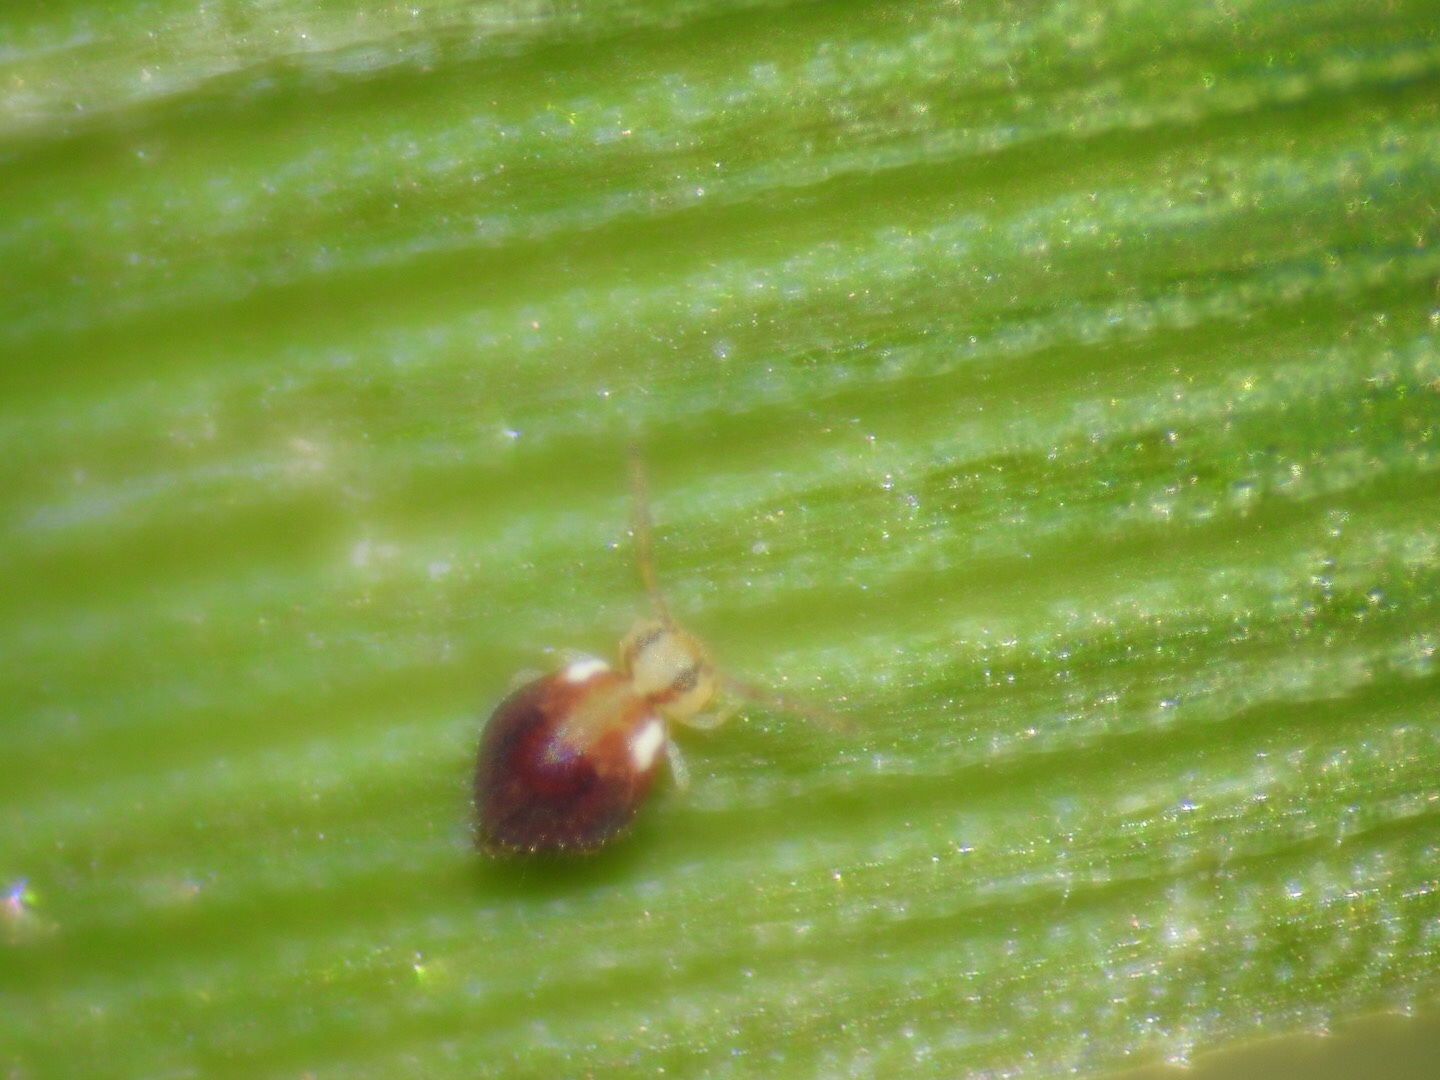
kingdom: Animalia
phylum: Arthropoda
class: Collembola
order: Symphypleona
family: Katiannidae
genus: Sminthurinus
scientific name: Sminthurinus quadrimaculatus
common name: Globular springtail
